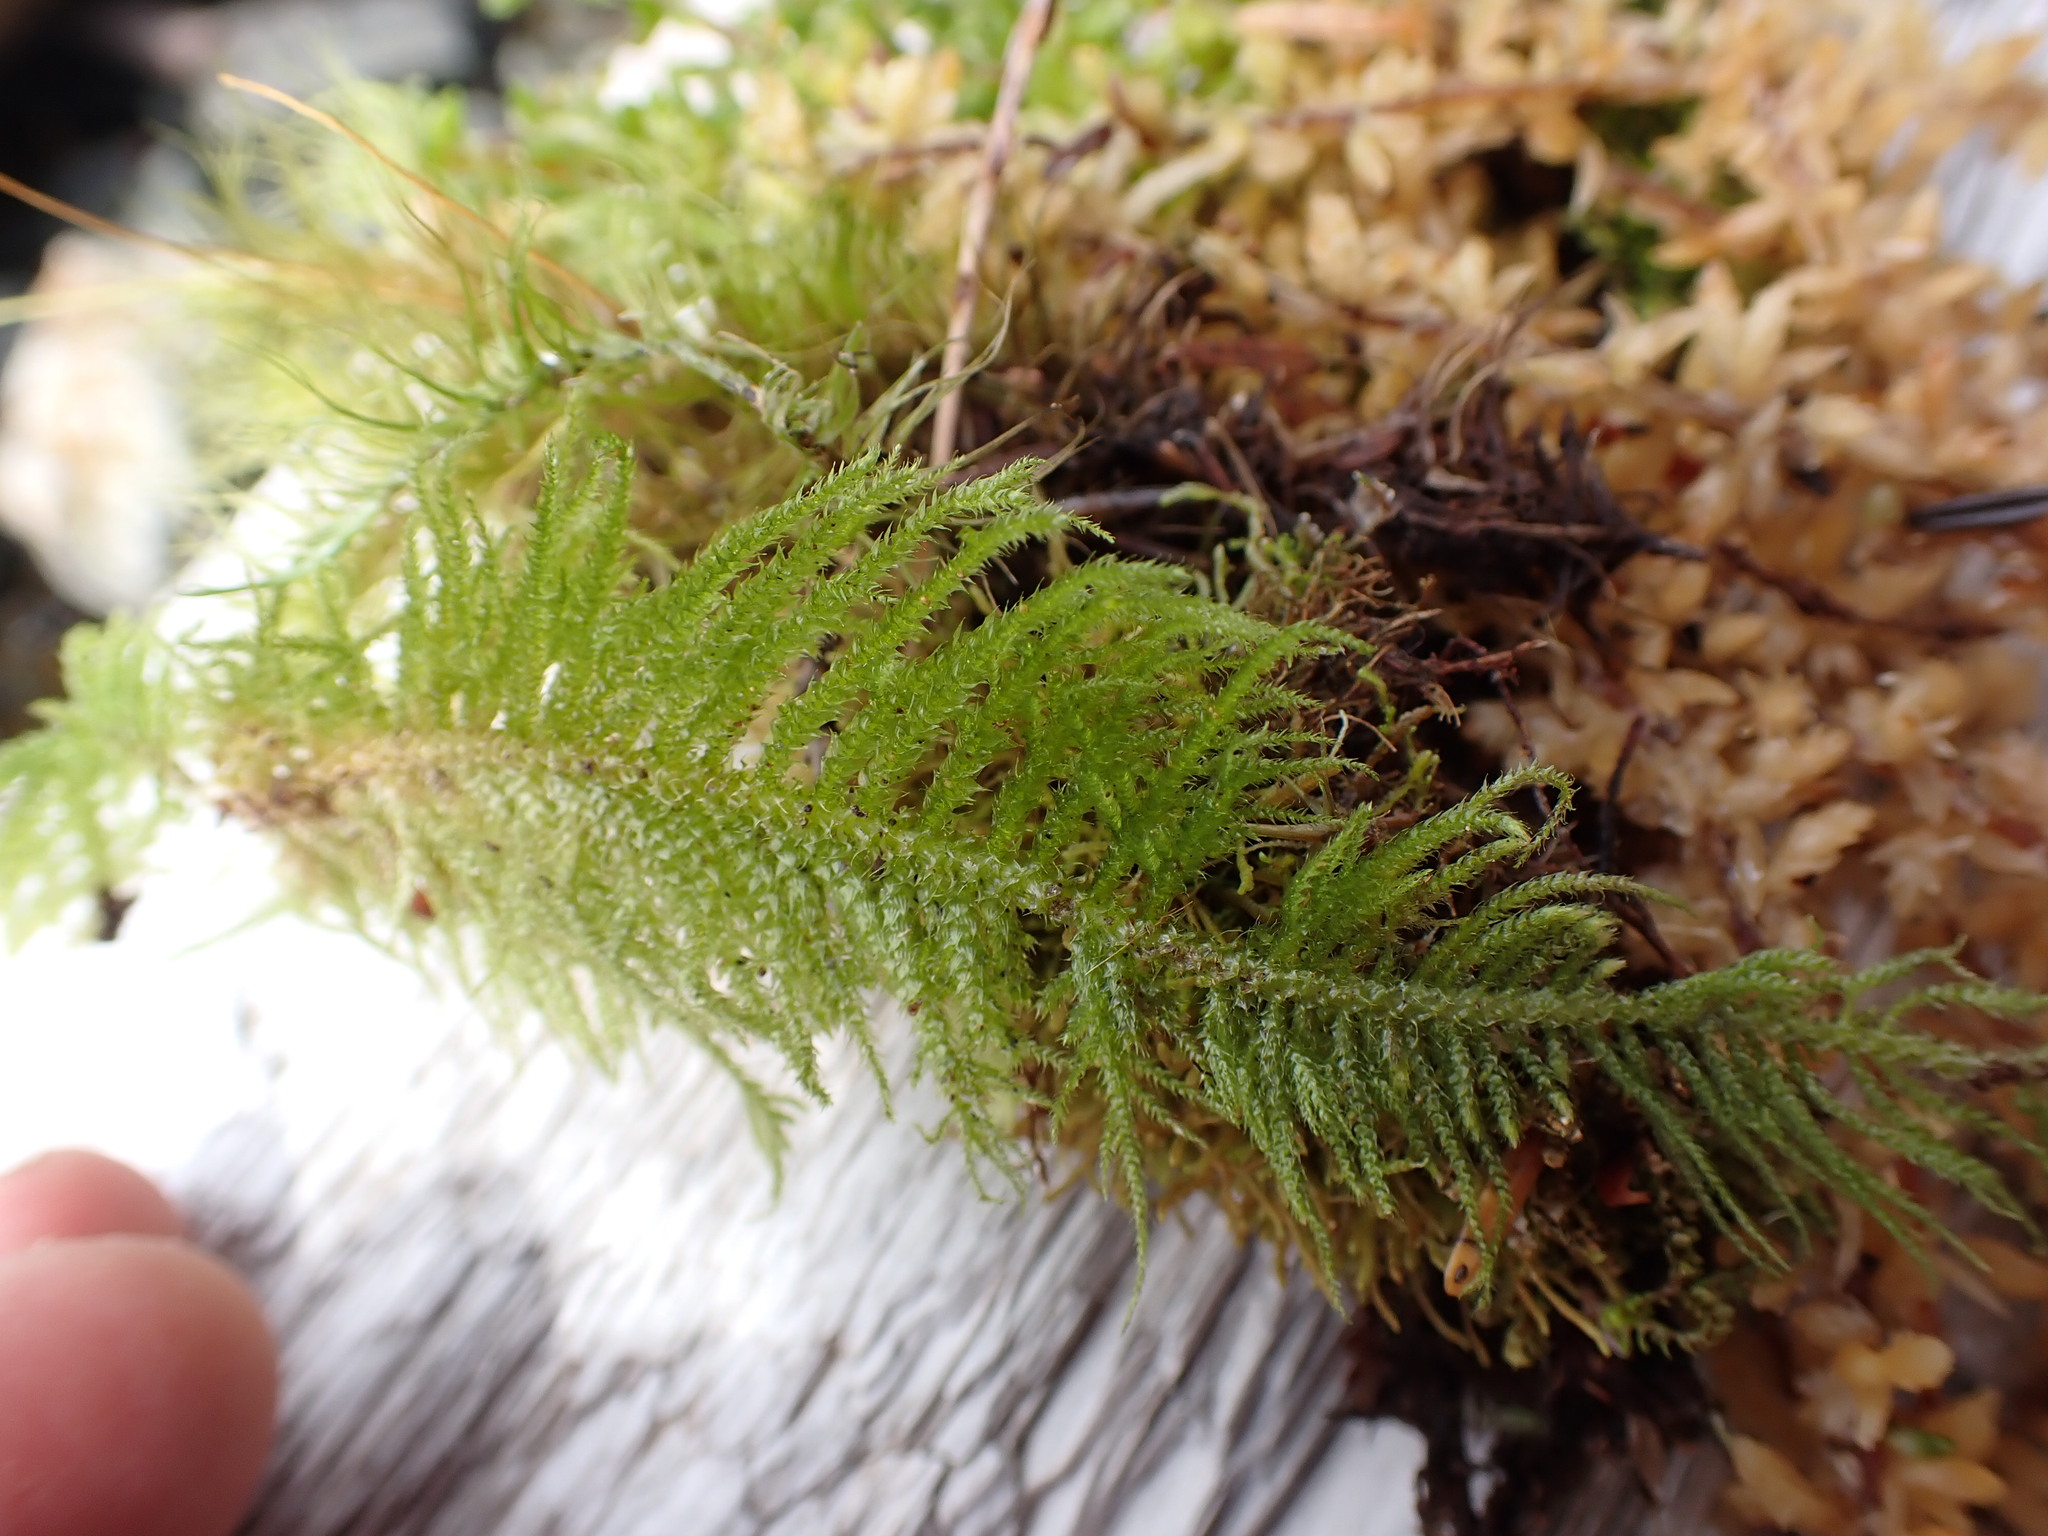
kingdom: Plantae
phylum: Bryophyta
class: Bryopsida
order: Hypnales
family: Brachytheciaceae
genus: Kindbergia
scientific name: Kindbergia oregana
